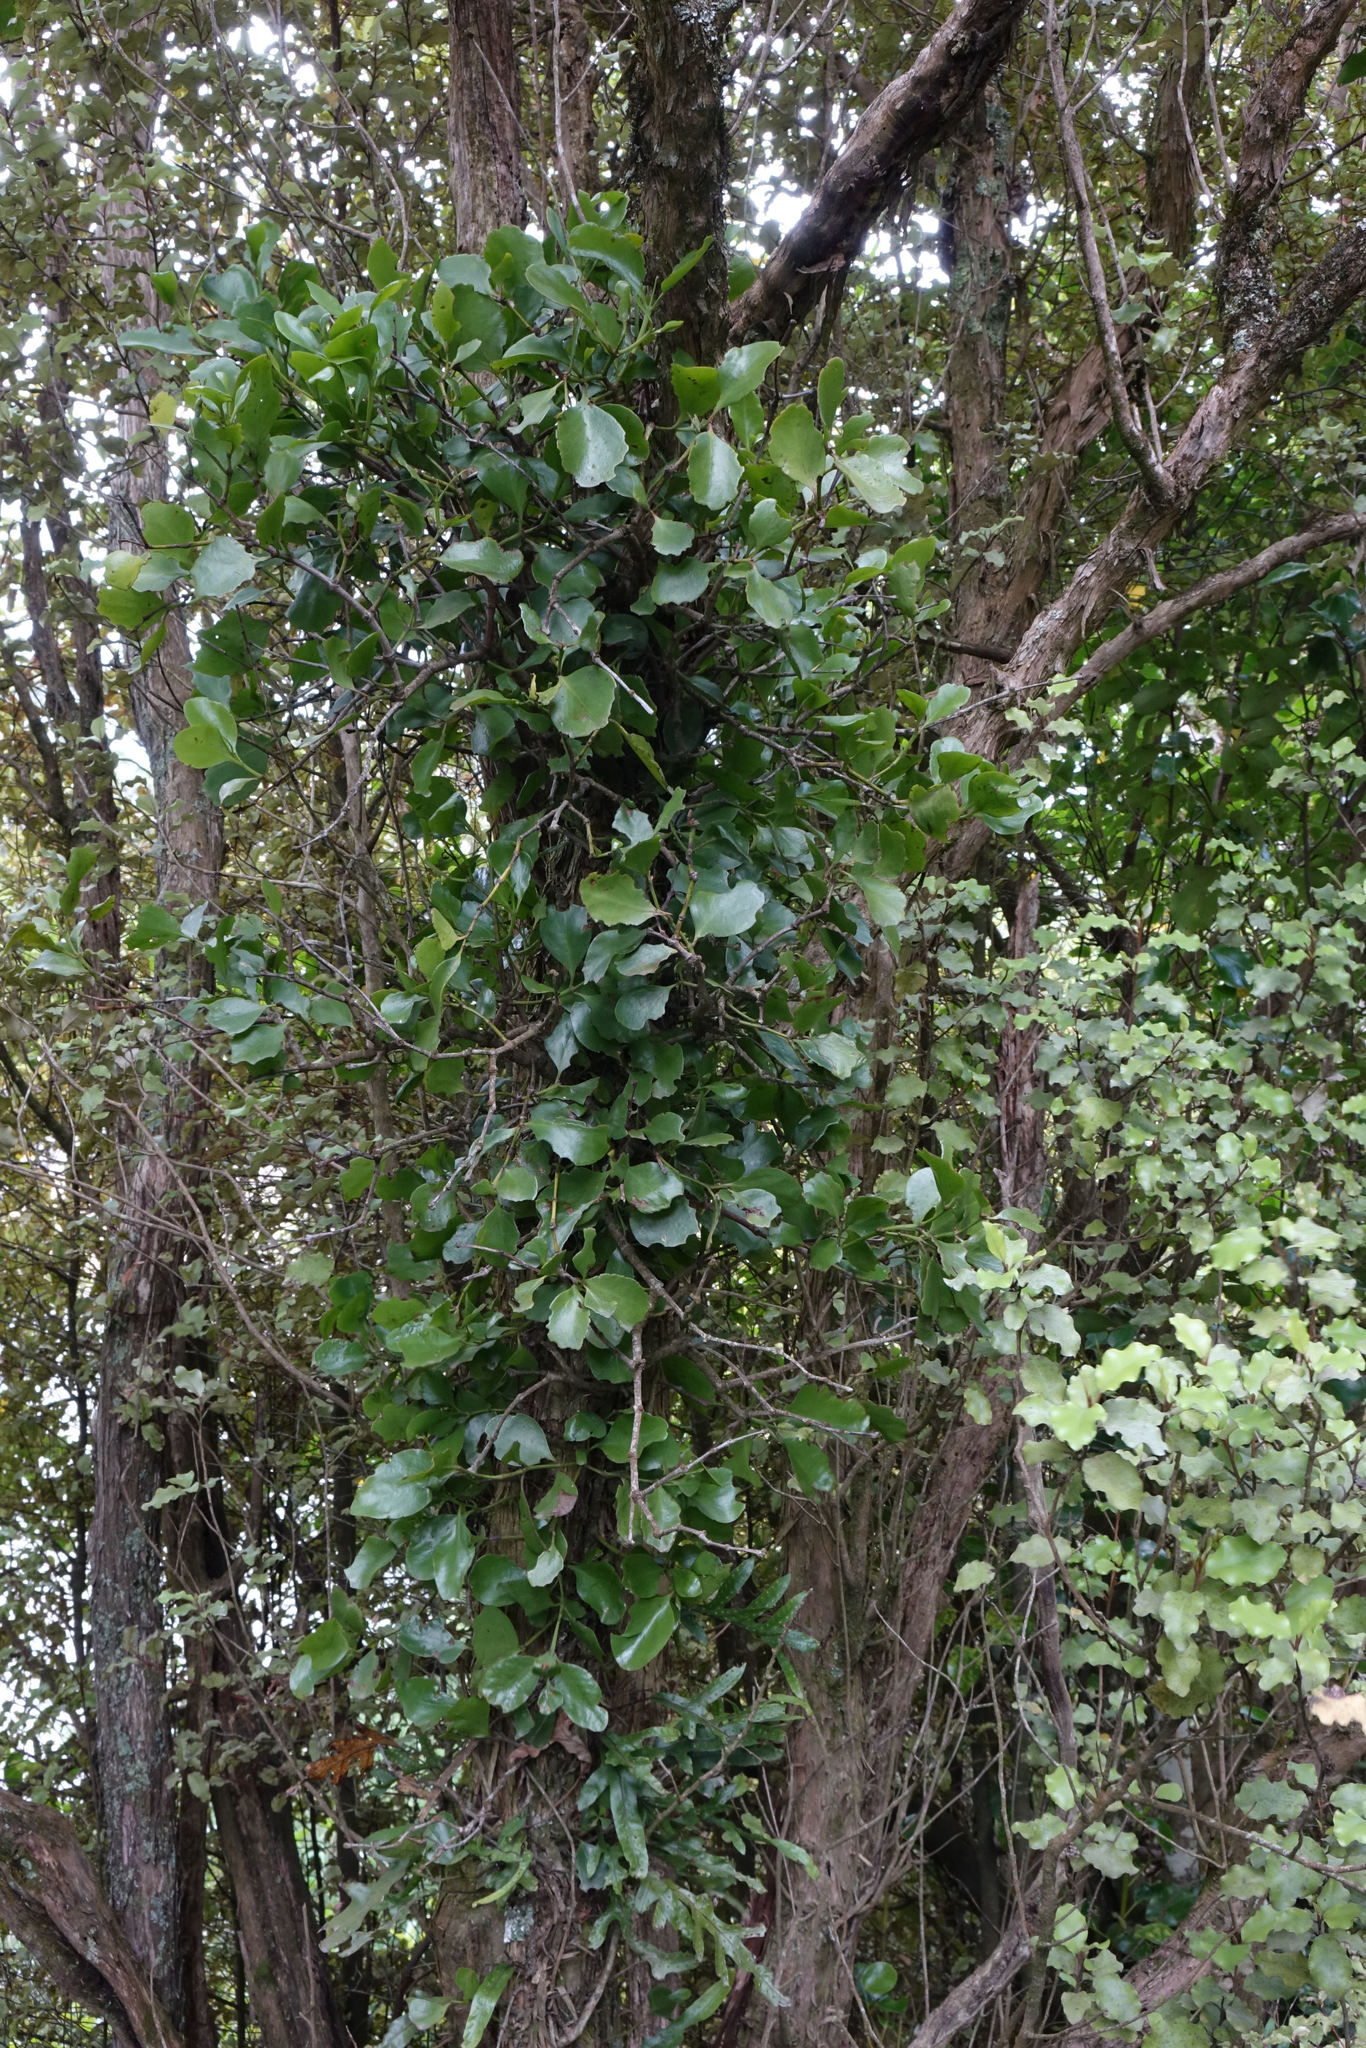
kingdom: Plantae
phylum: Tracheophyta
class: Magnoliopsida
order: Santalales
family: Loranthaceae
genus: Ileostylus
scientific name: Ileostylus micranthus
